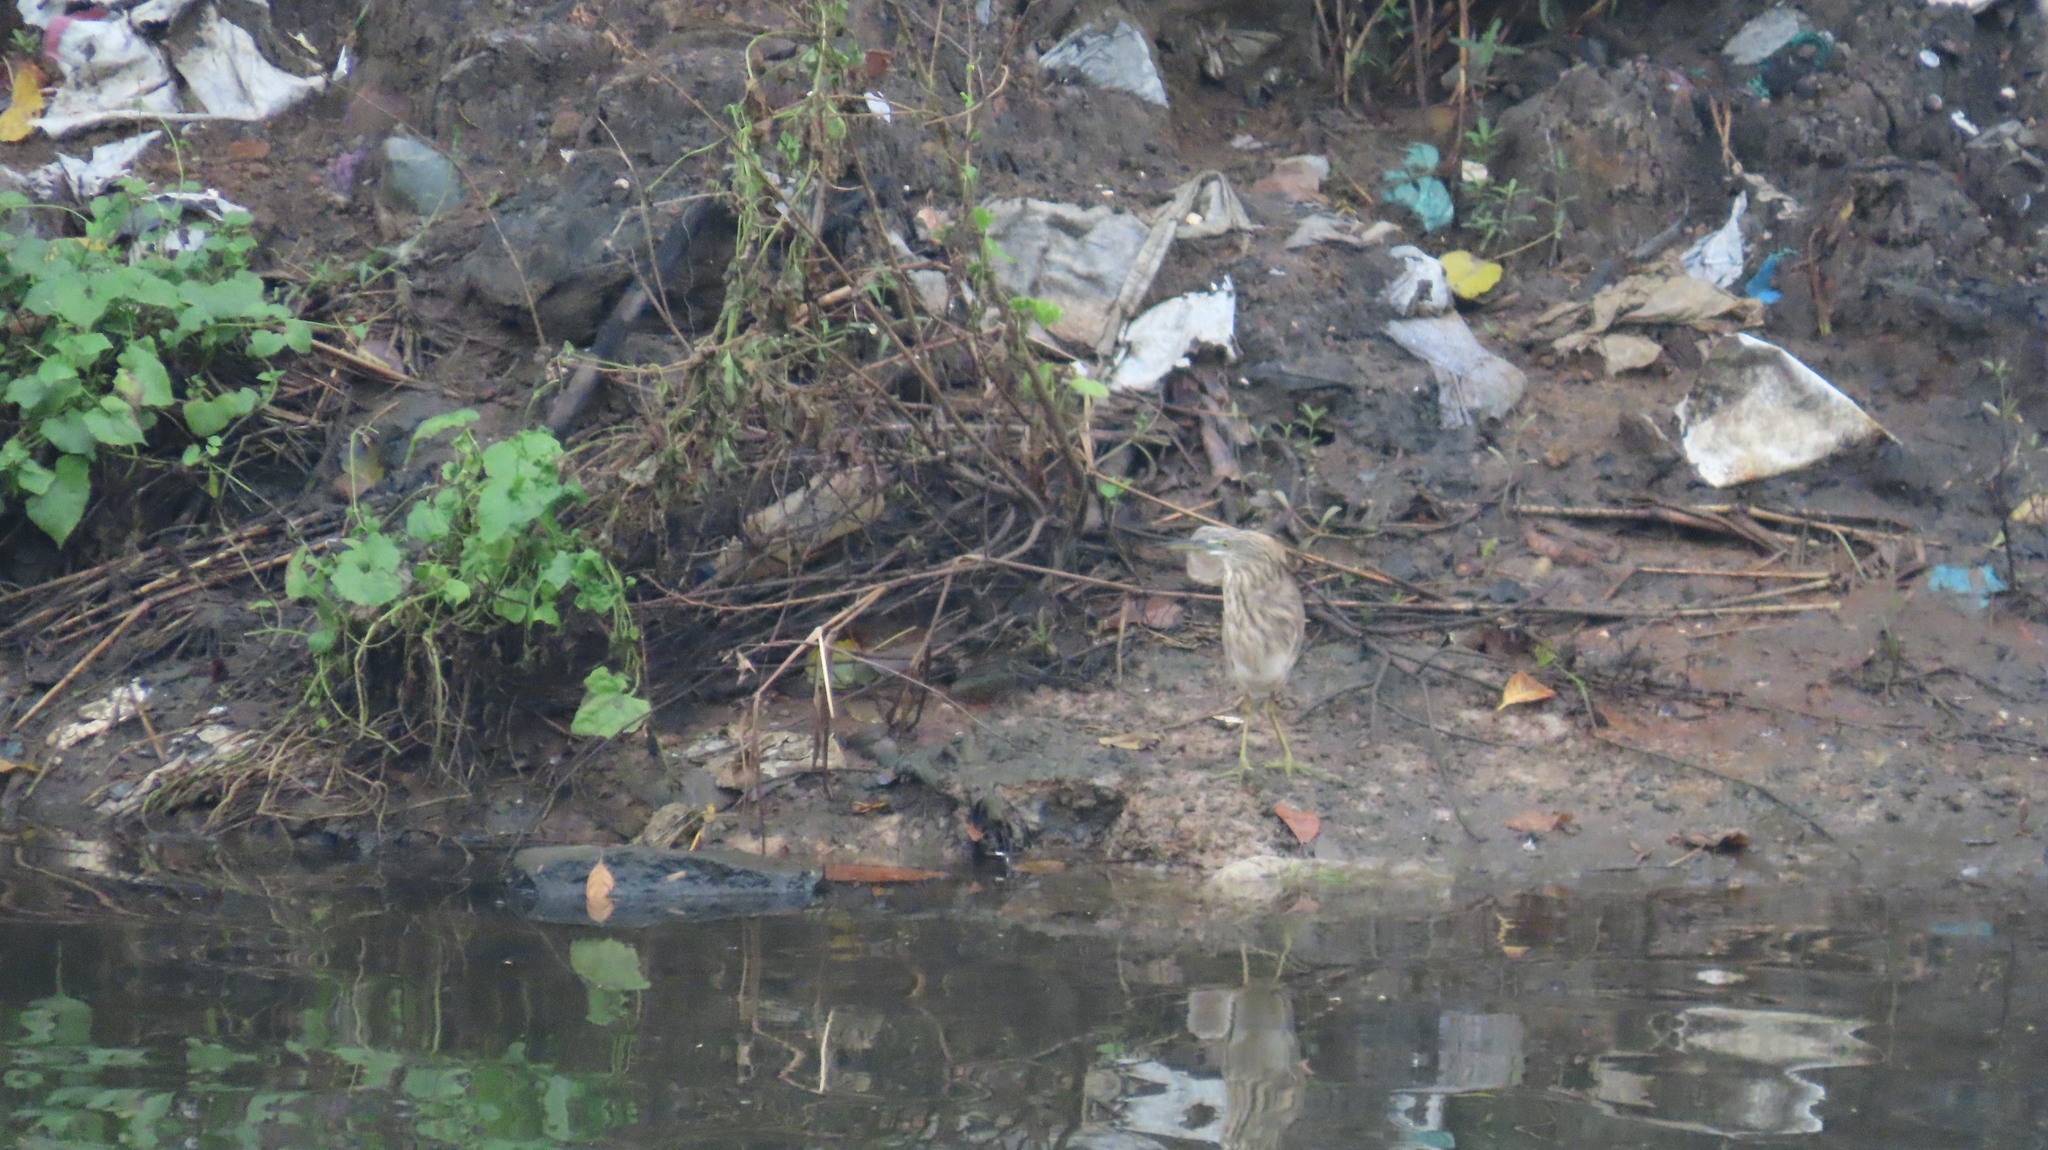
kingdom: Animalia
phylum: Chordata
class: Aves
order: Pelecaniformes
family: Ardeidae
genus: Ardeola
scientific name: Ardeola grayii
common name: Indian pond heron
